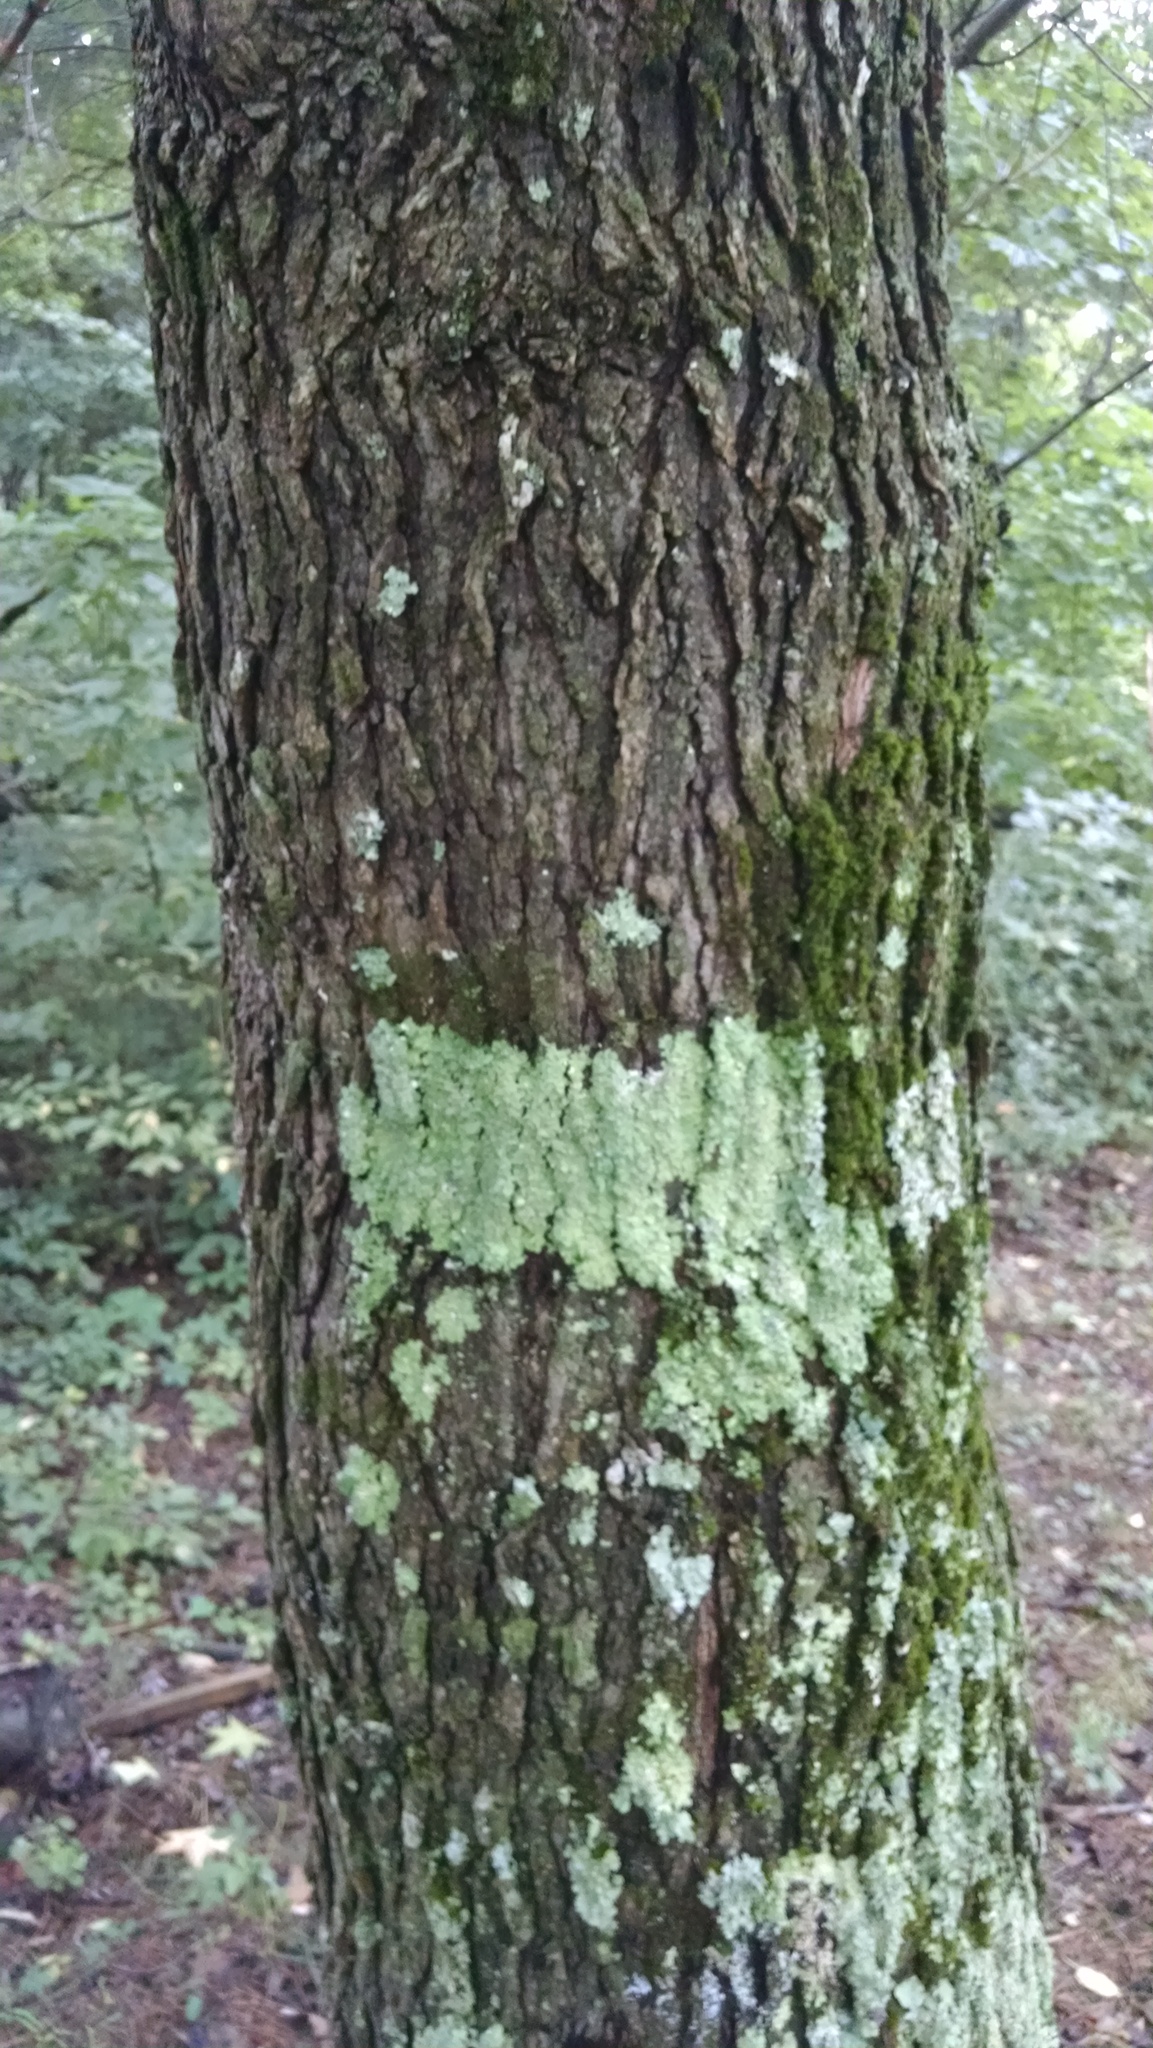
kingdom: Plantae
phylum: Tracheophyta
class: Magnoliopsida
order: Saxifragales
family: Altingiaceae
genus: Liquidambar
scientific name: Liquidambar styraciflua
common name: Sweet gum
